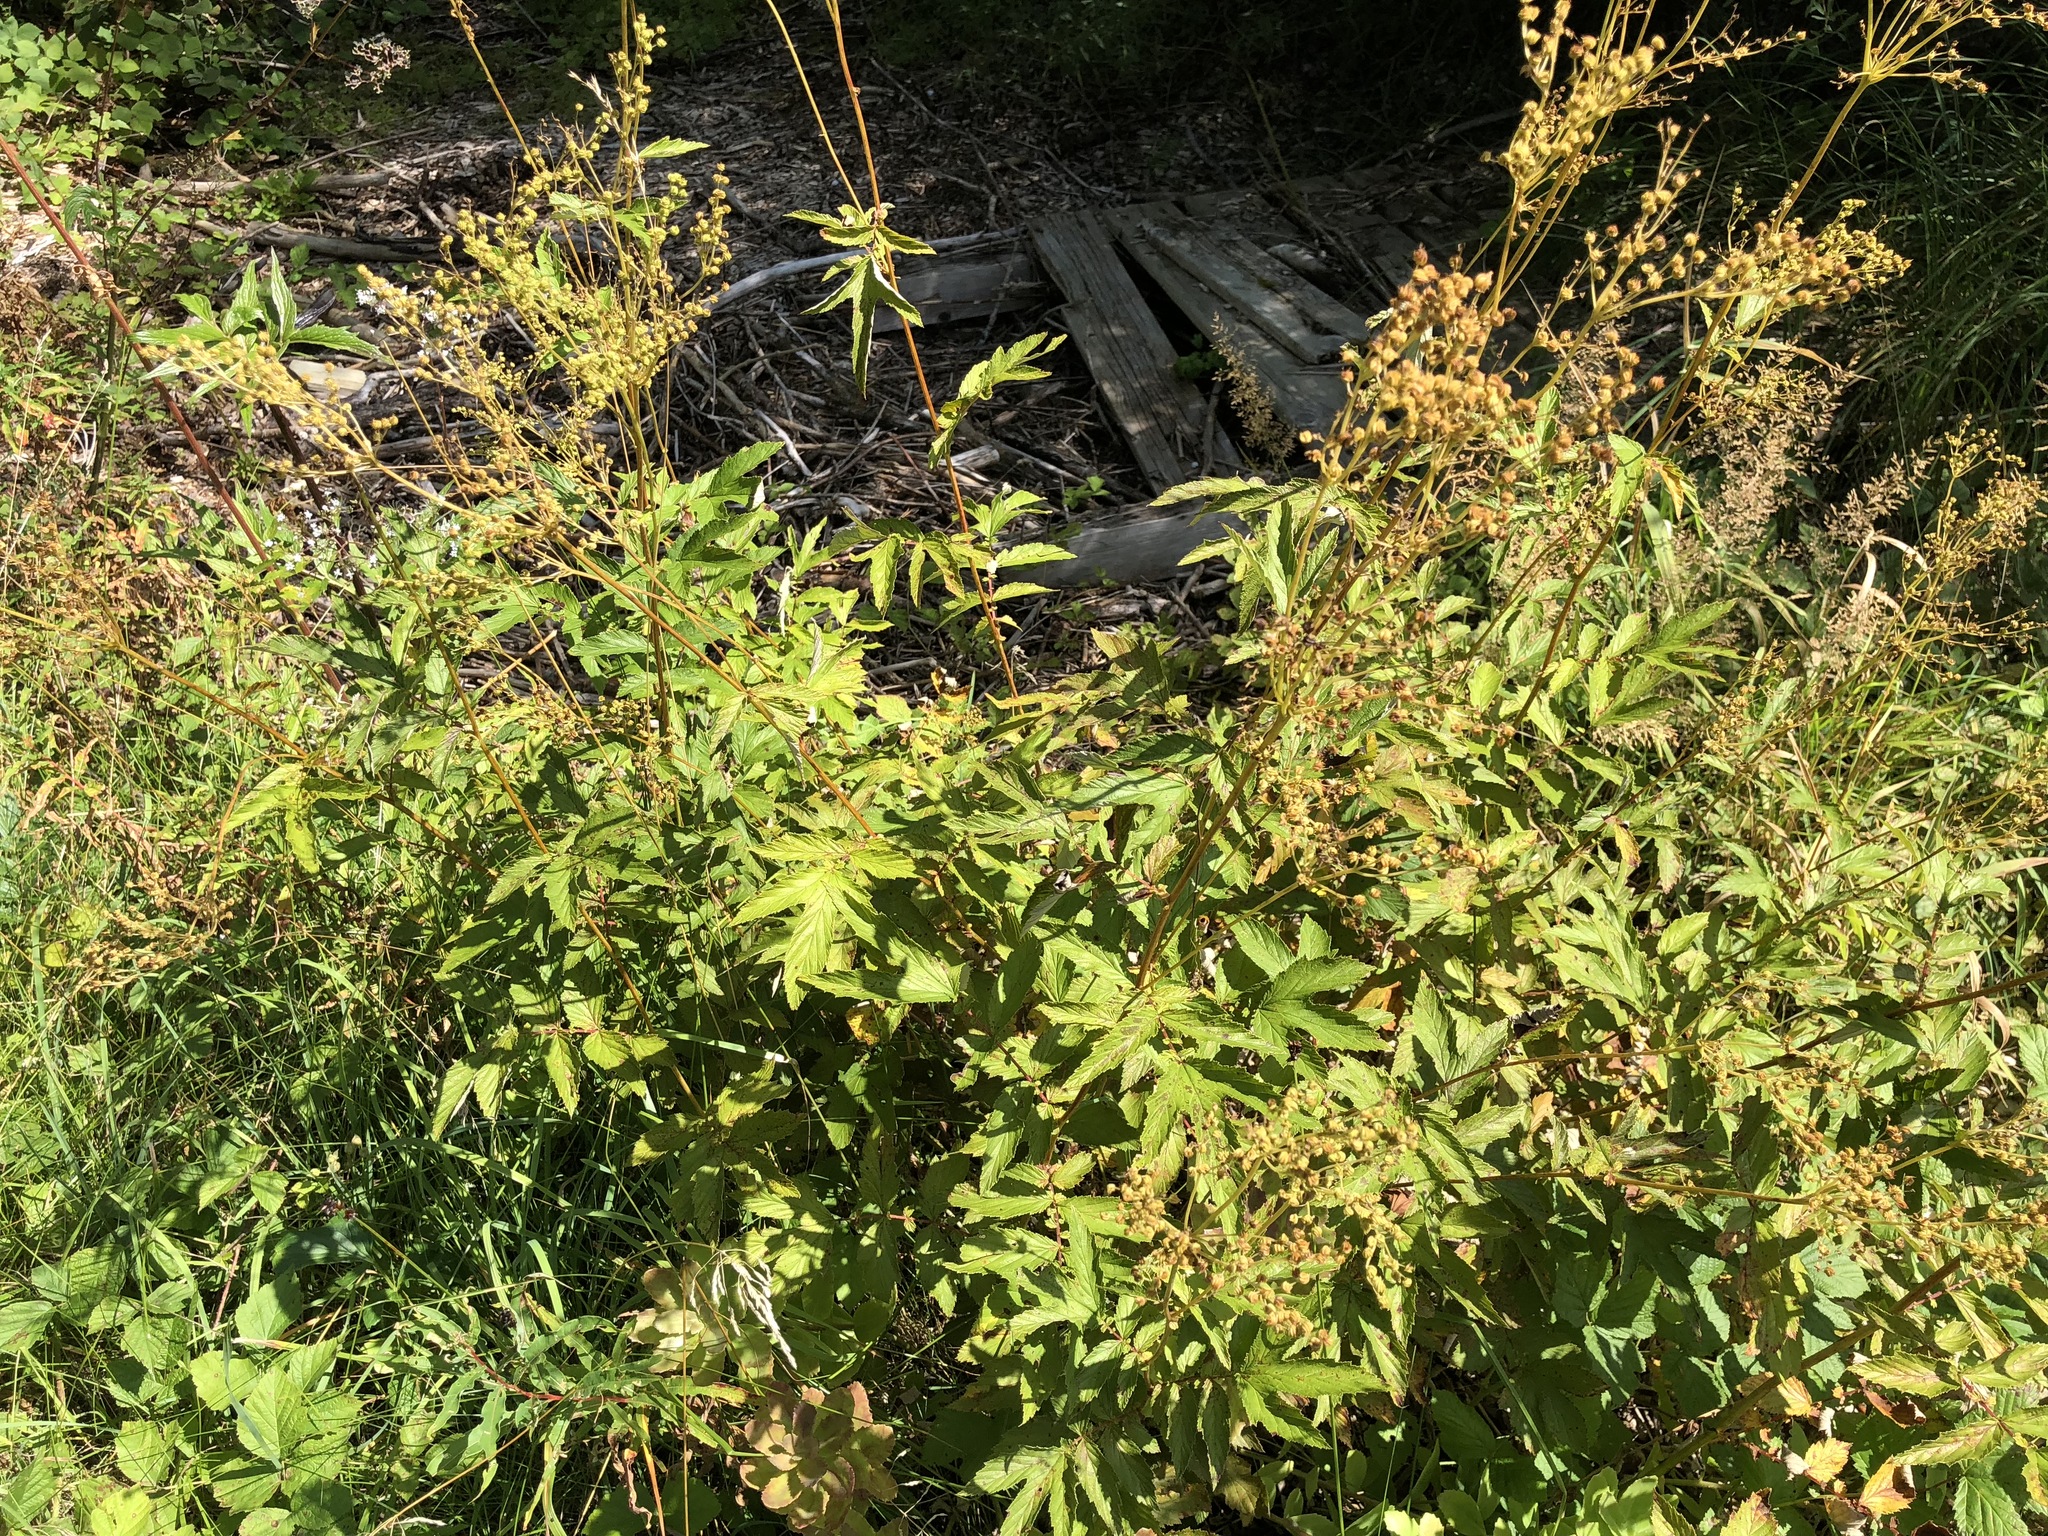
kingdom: Plantae
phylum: Tracheophyta
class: Magnoliopsida
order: Rosales
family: Rosaceae
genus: Filipendula
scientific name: Filipendula ulmaria
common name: Meadowsweet
